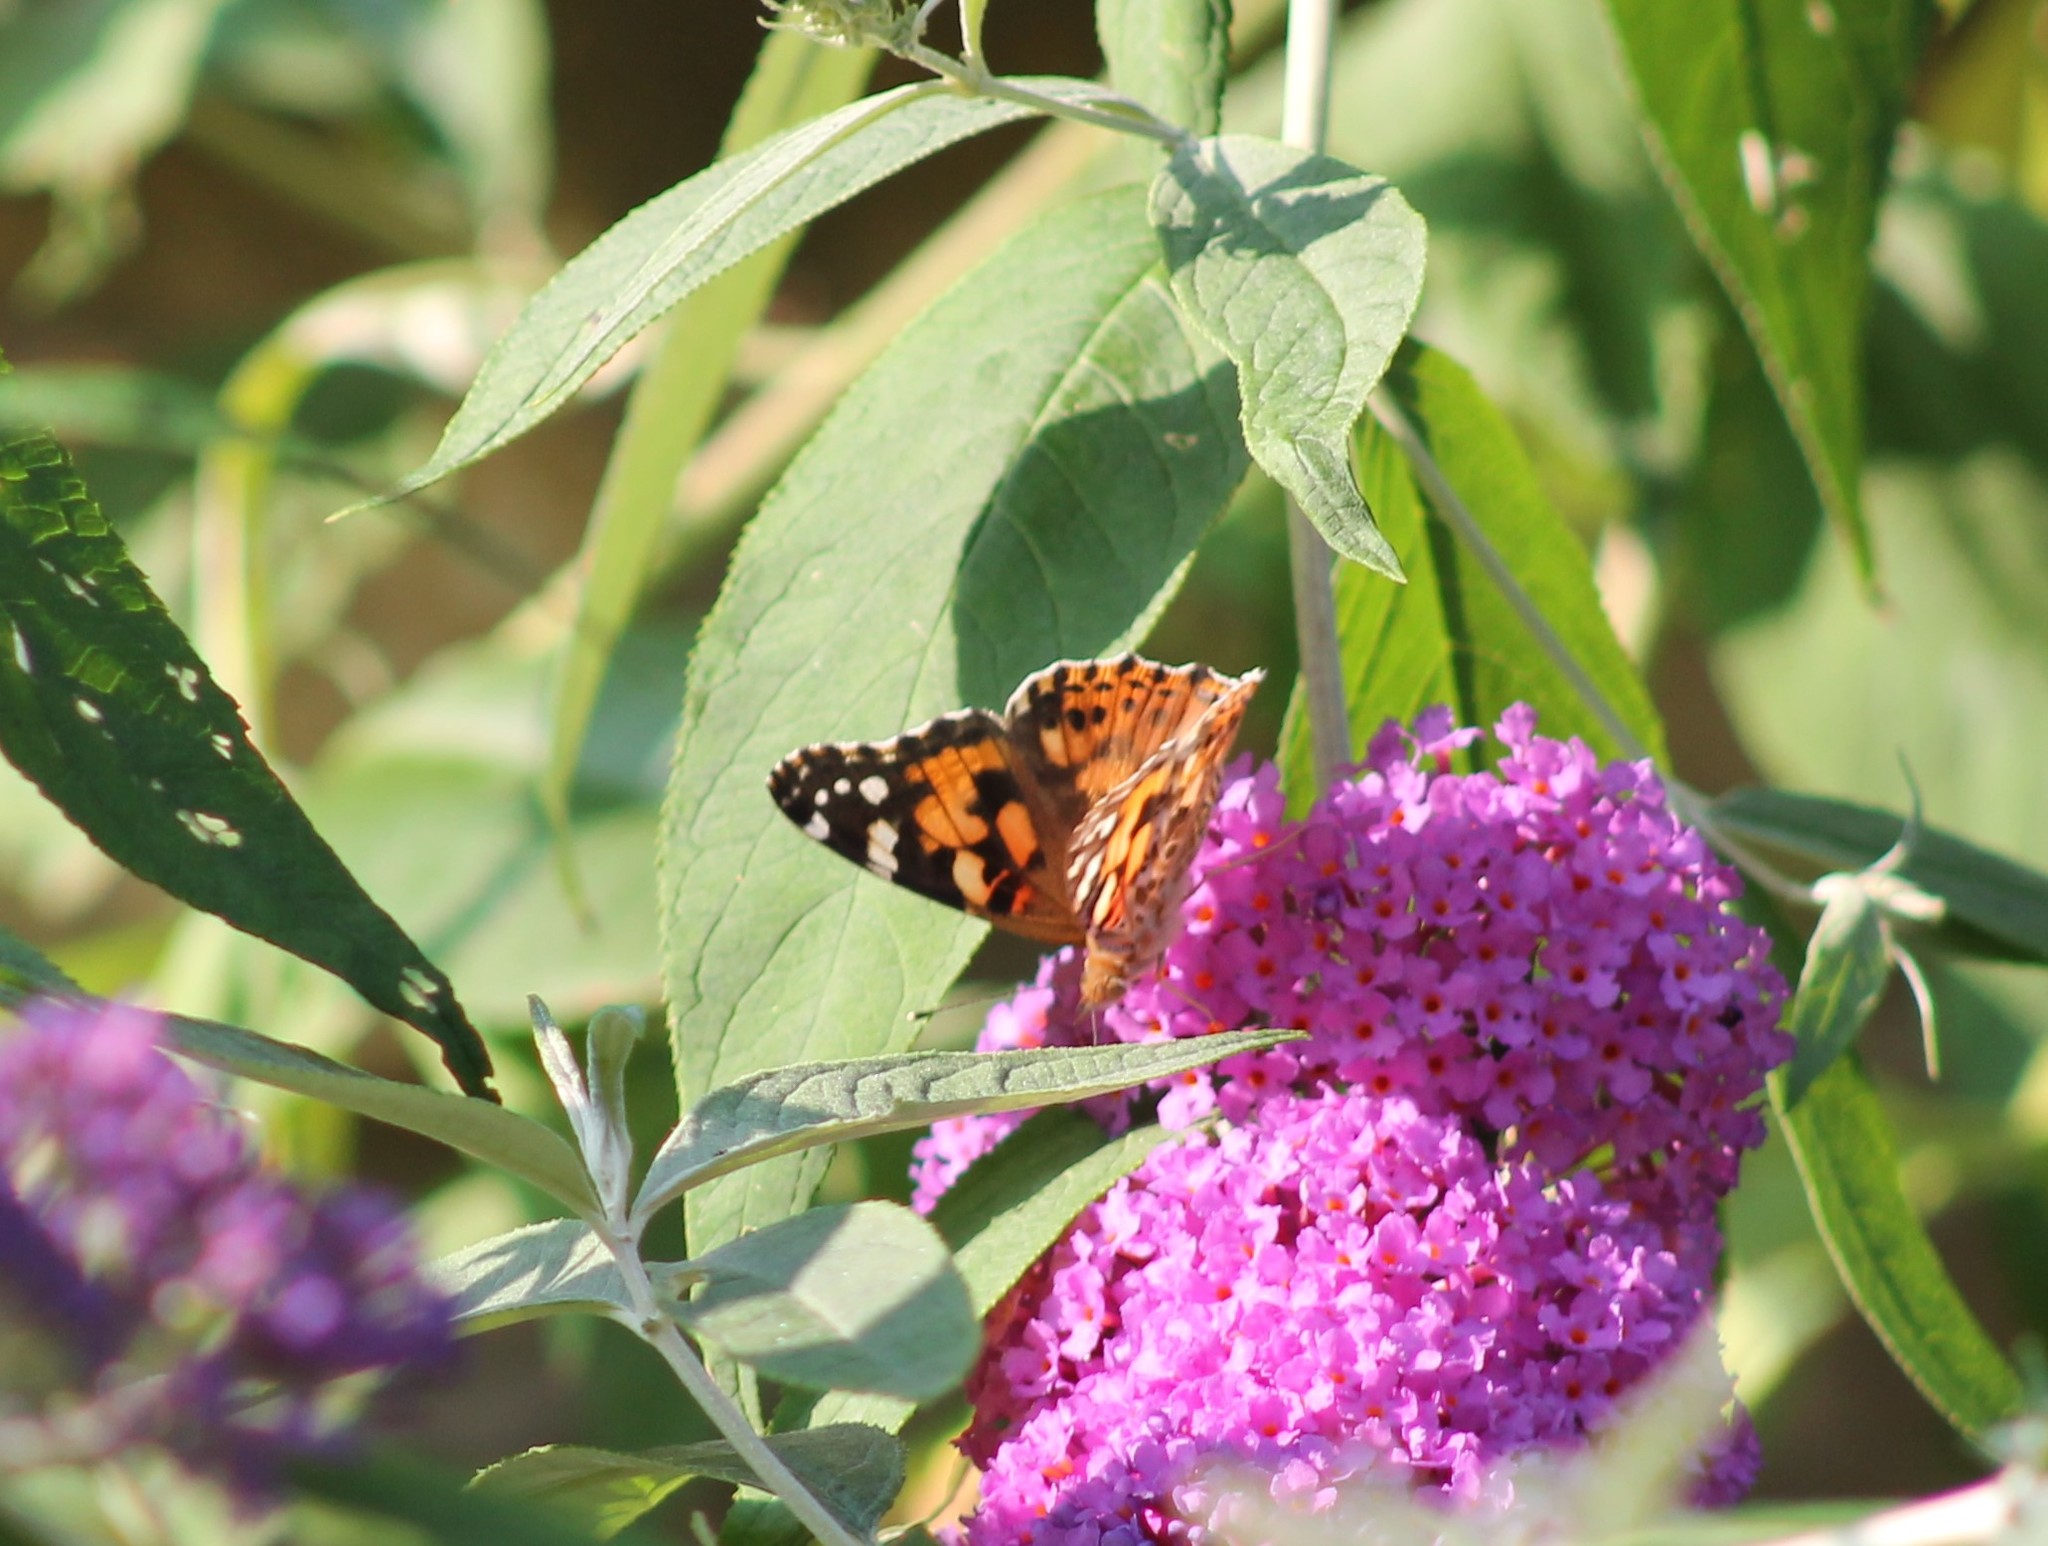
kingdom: Animalia
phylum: Arthropoda
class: Insecta
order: Lepidoptera
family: Nymphalidae
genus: Vanessa
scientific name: Vanessa cardui
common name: Painted lady
